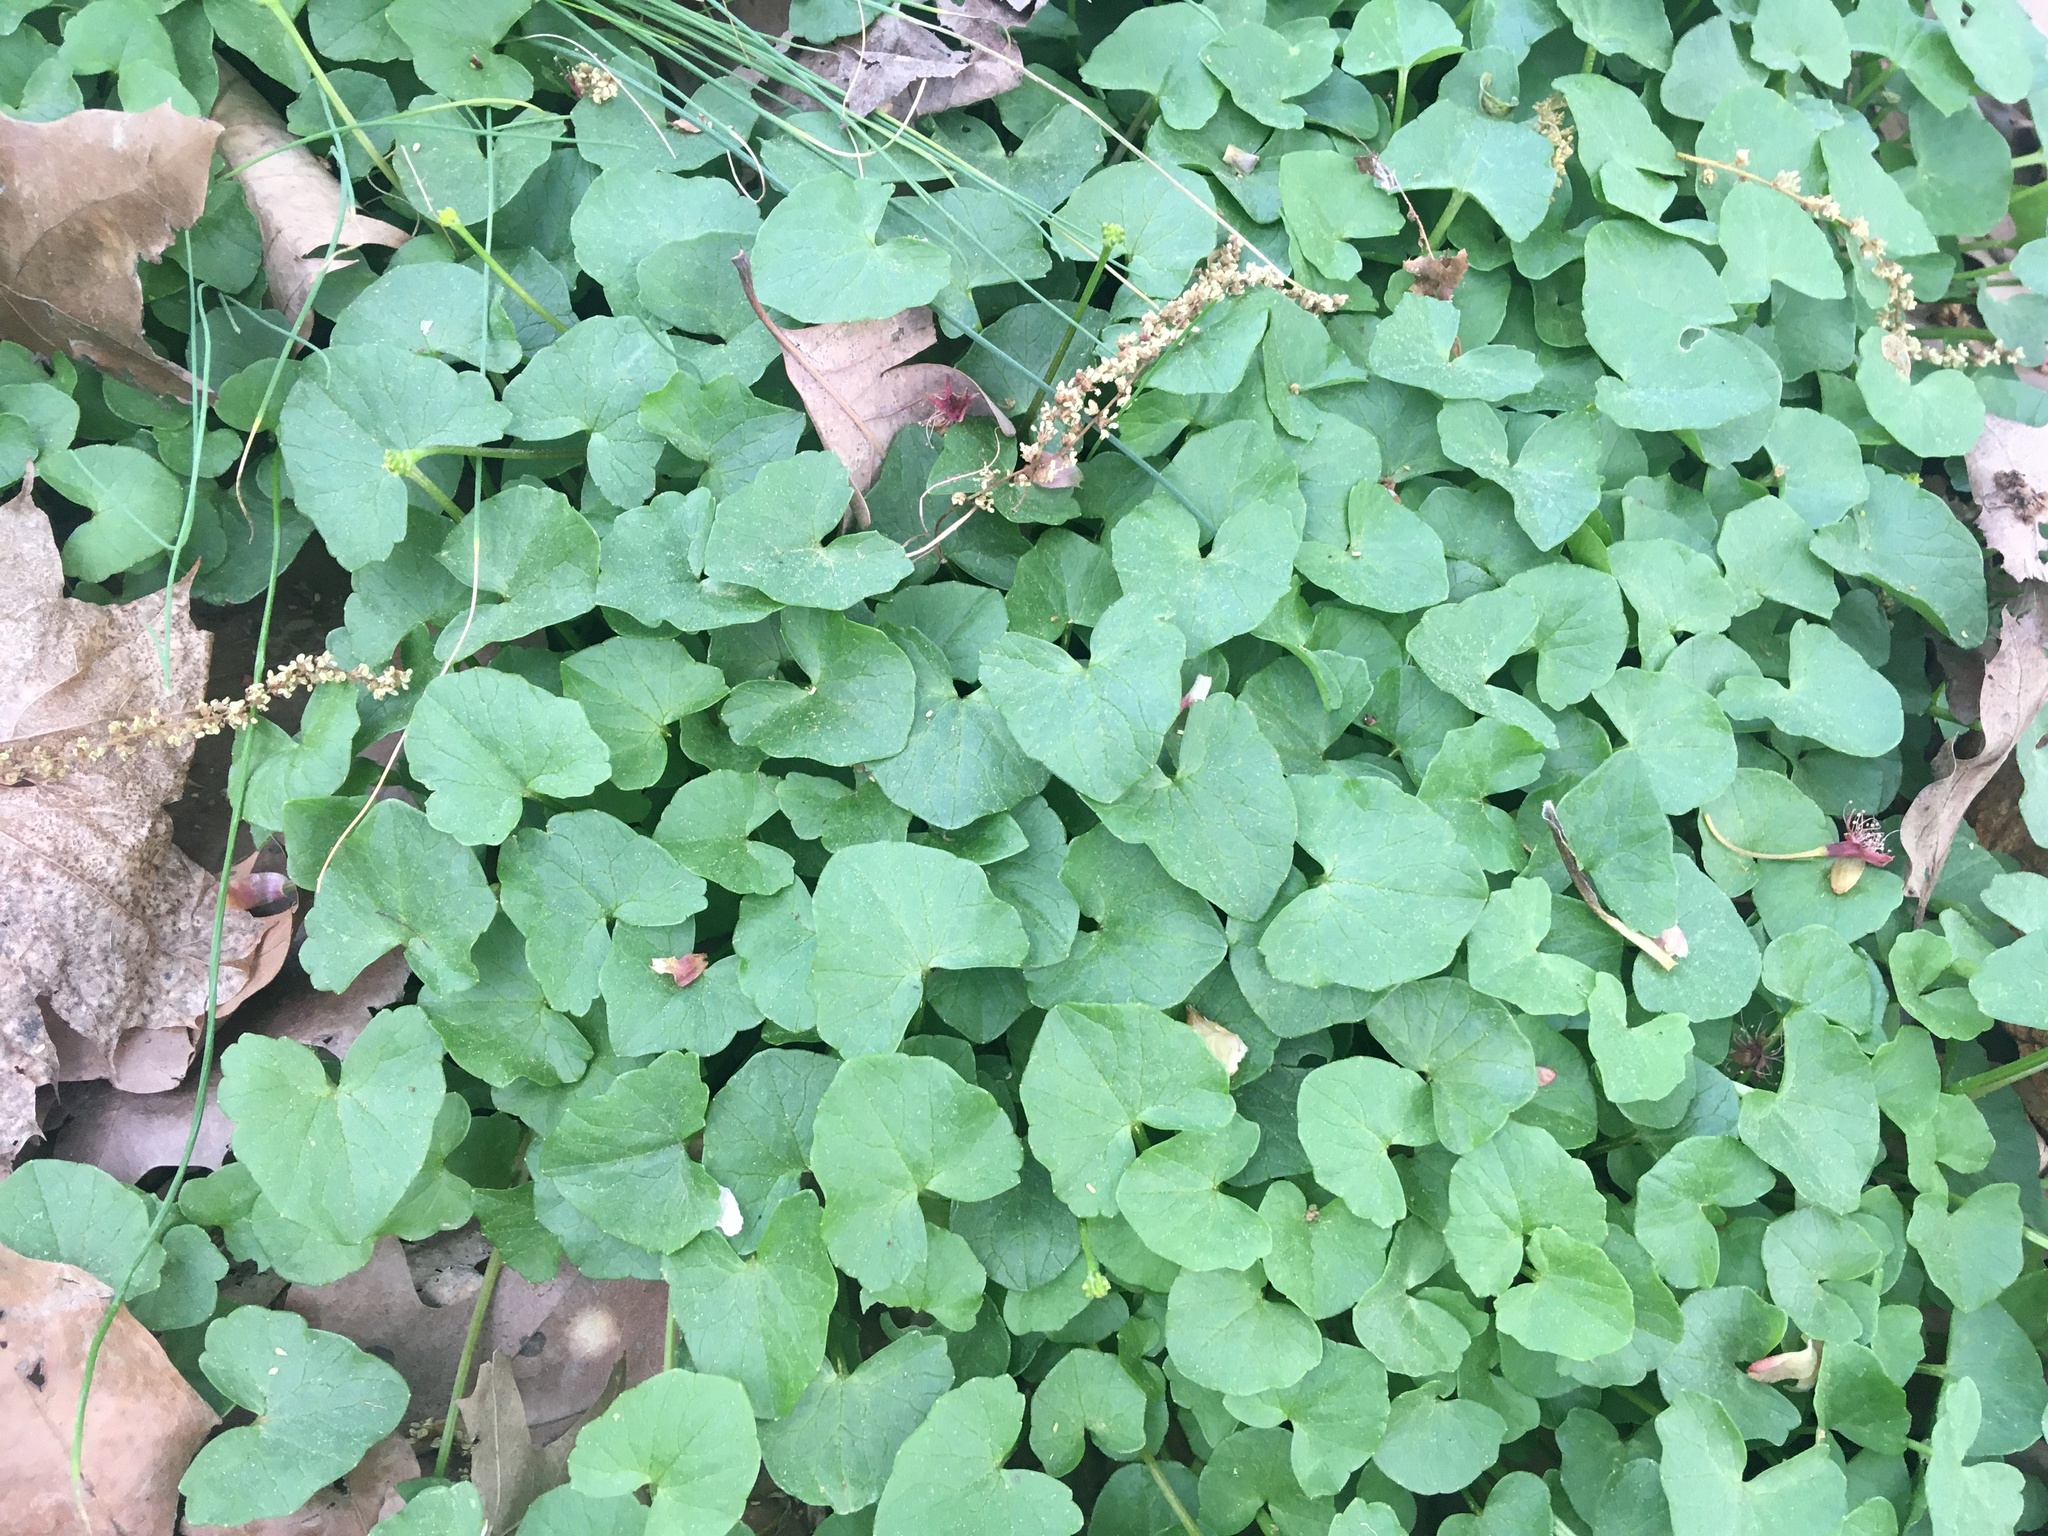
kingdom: Plantae
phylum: Tracheophyta
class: Magnoliopsida
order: Ranunculales
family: Ranunculaceae
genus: Ficaria
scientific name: Ficaria verna
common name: Lesser celandine
